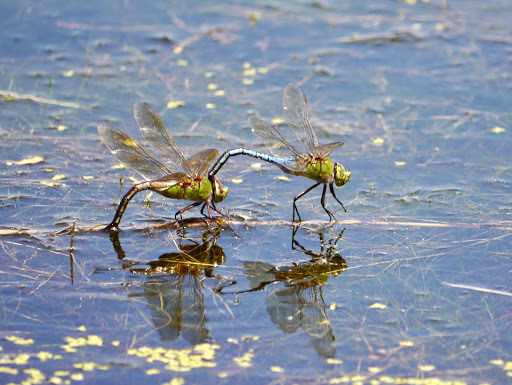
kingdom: Animalia
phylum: Arthropoda
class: Insecta
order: Odonata
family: Aeshnidae
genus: Anax
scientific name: Anax junius
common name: Common green darner
